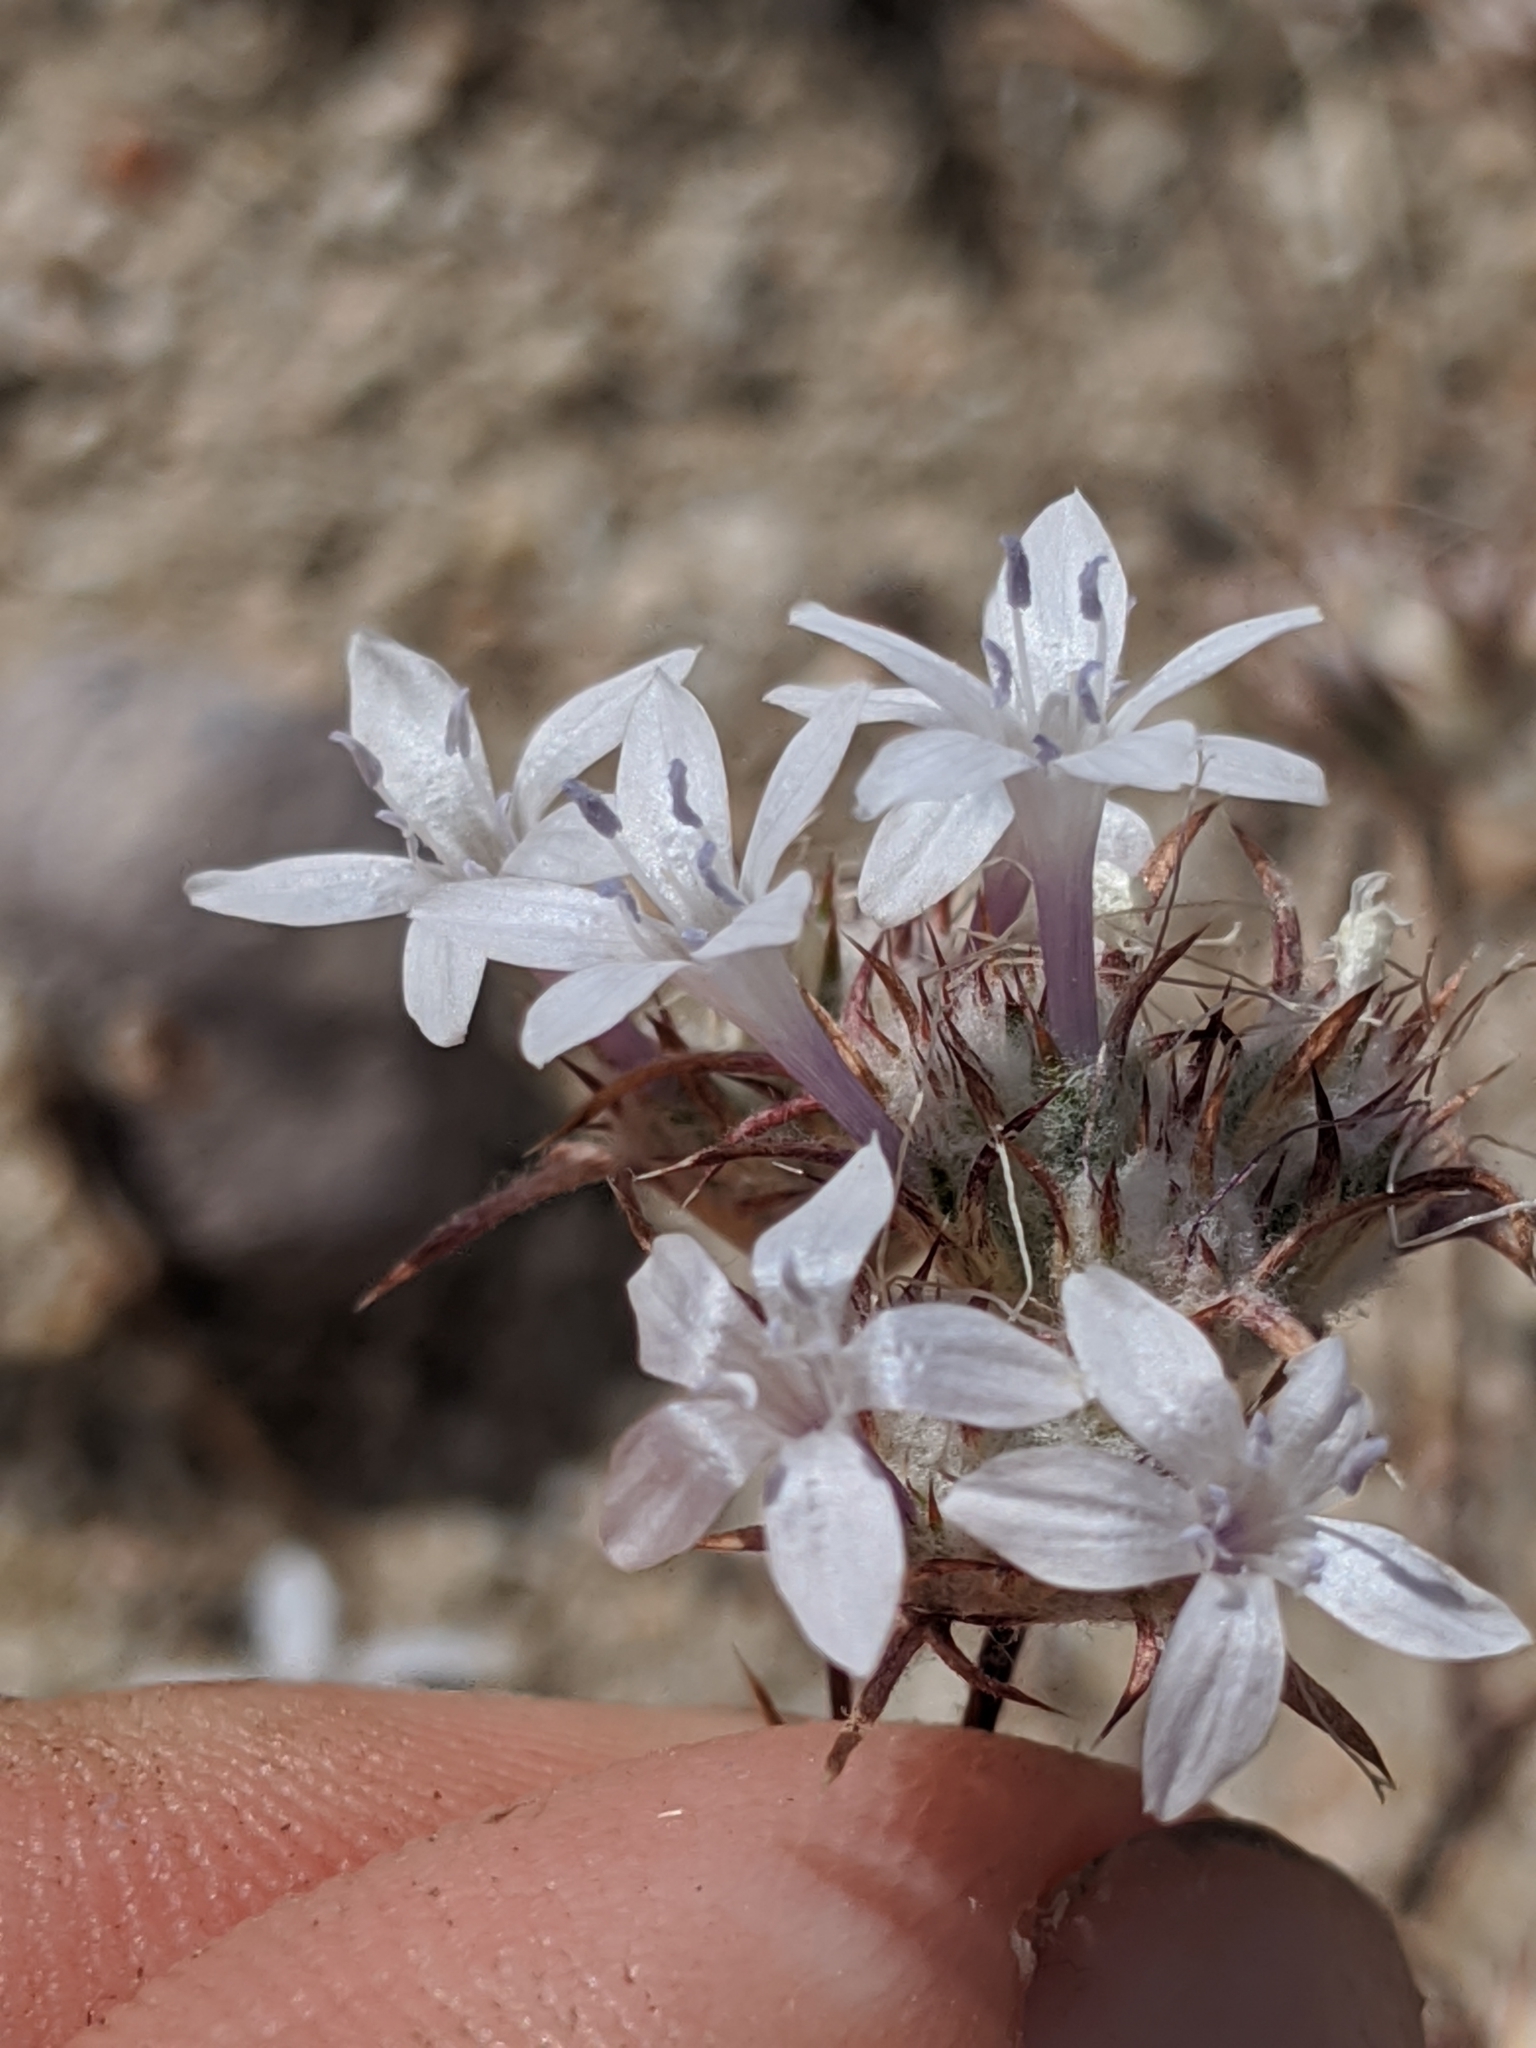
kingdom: Plantae
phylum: Tracheophyta
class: Magnoliopsida
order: Ericales
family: Polemoniaceae
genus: Eriastrum
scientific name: Eriastrum pluriflorum
